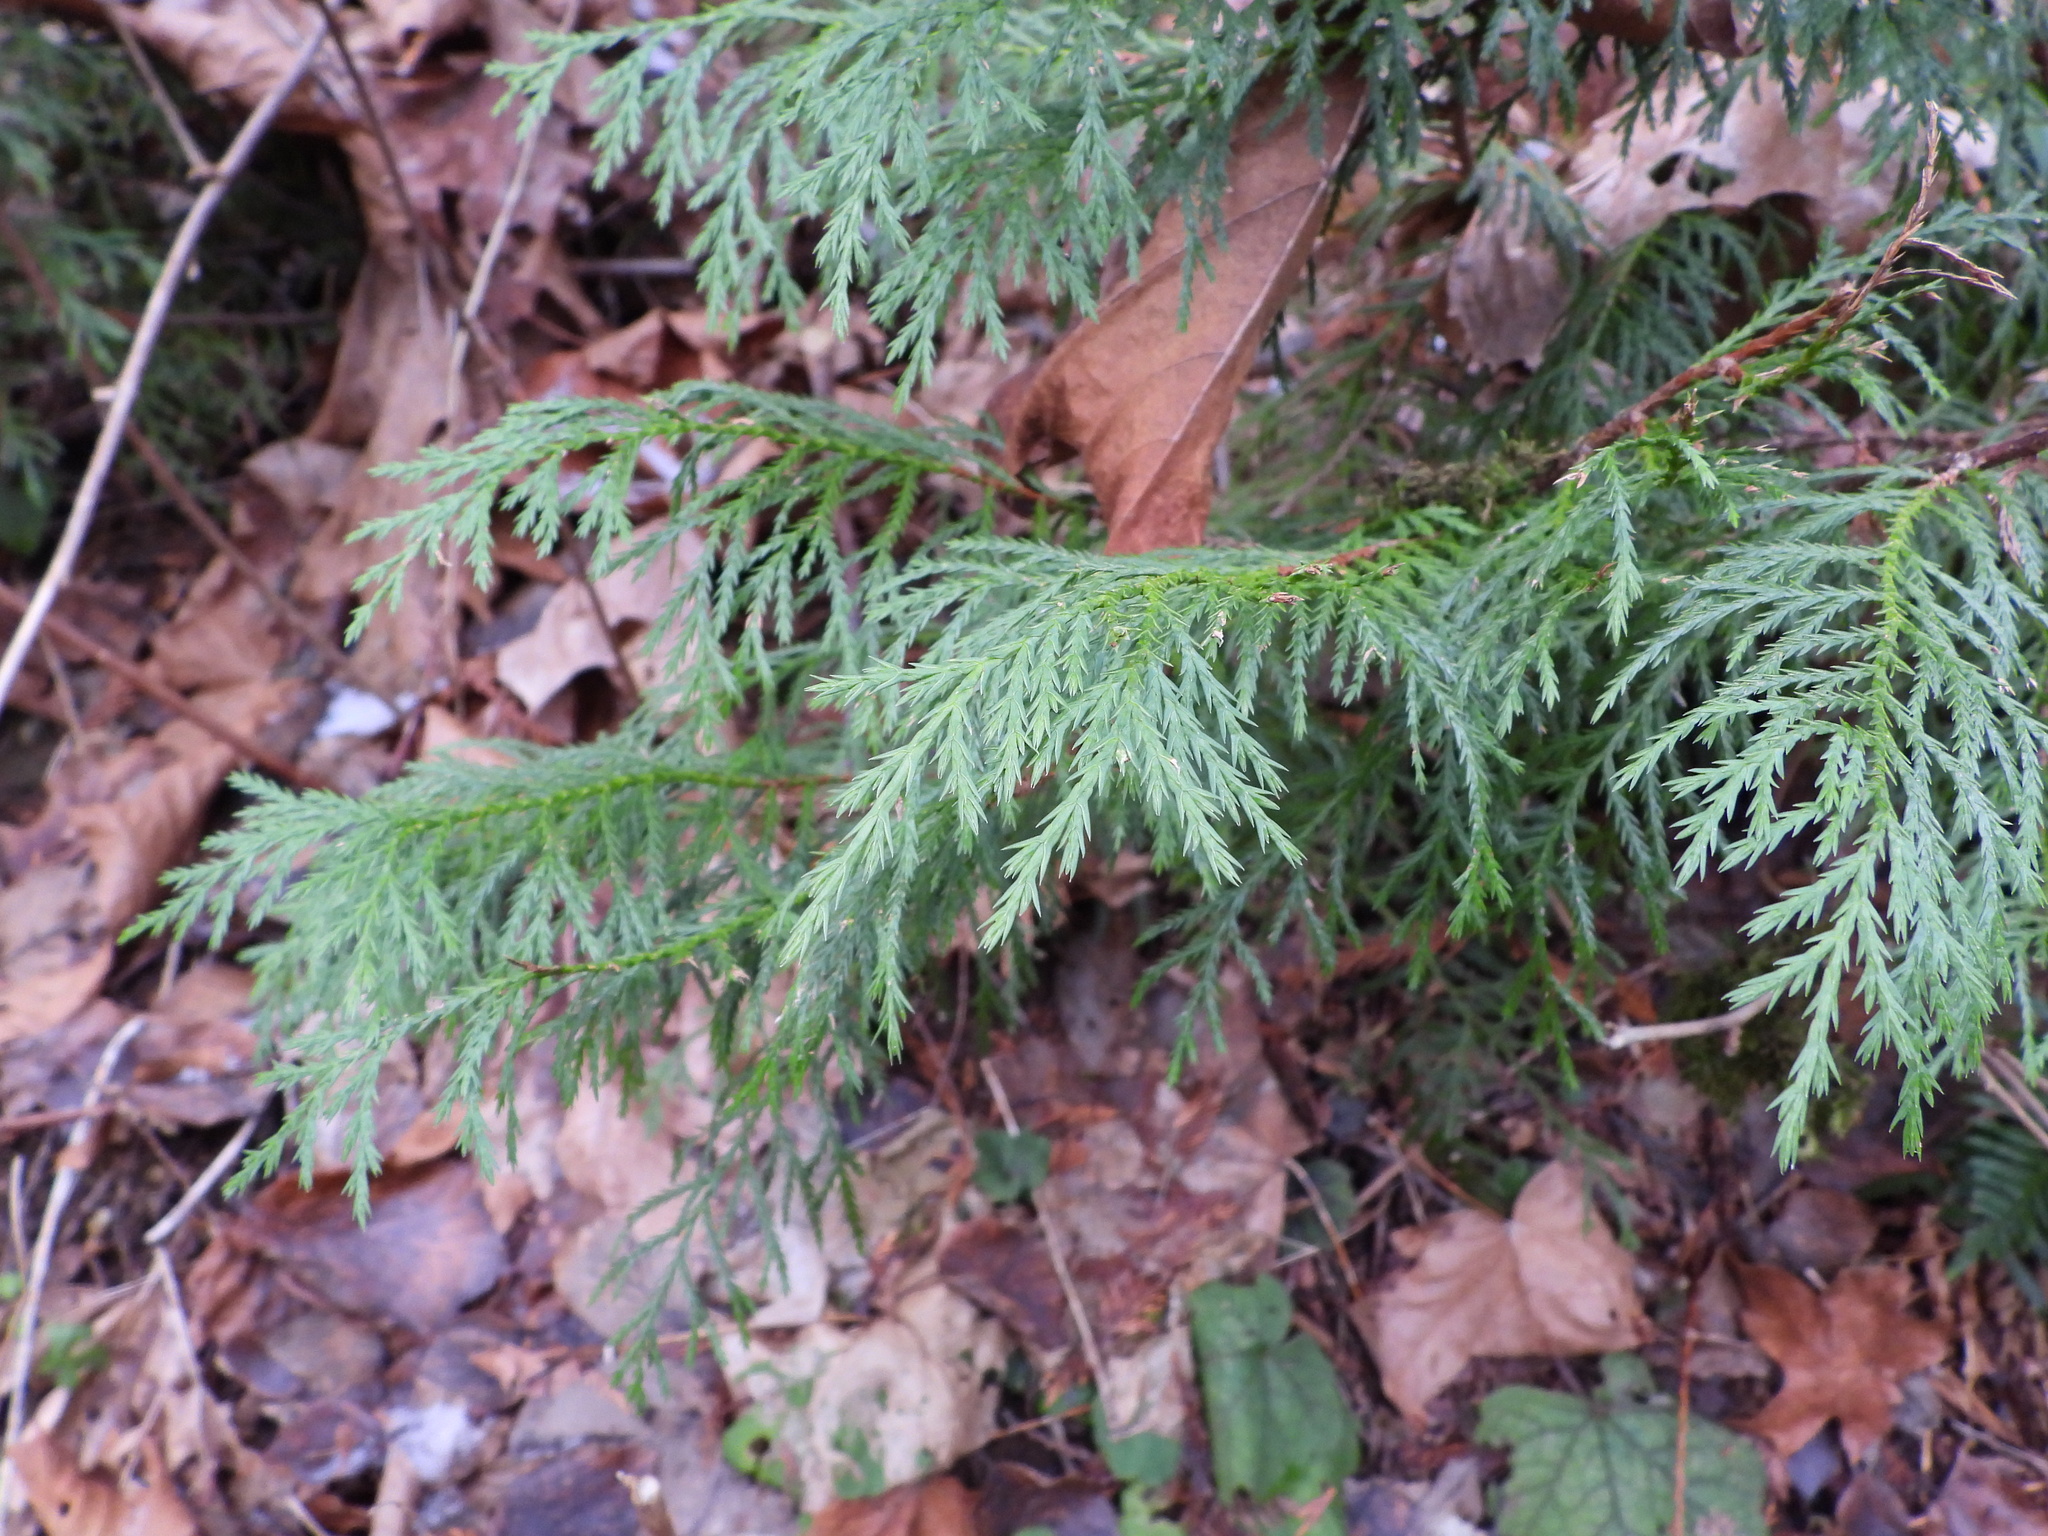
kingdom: Plantae
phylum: Tracheophyta
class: Pinopsida
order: Pinales
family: Cupressaceae
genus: Thuja
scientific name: Thuja plicata
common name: Western red-cedar
